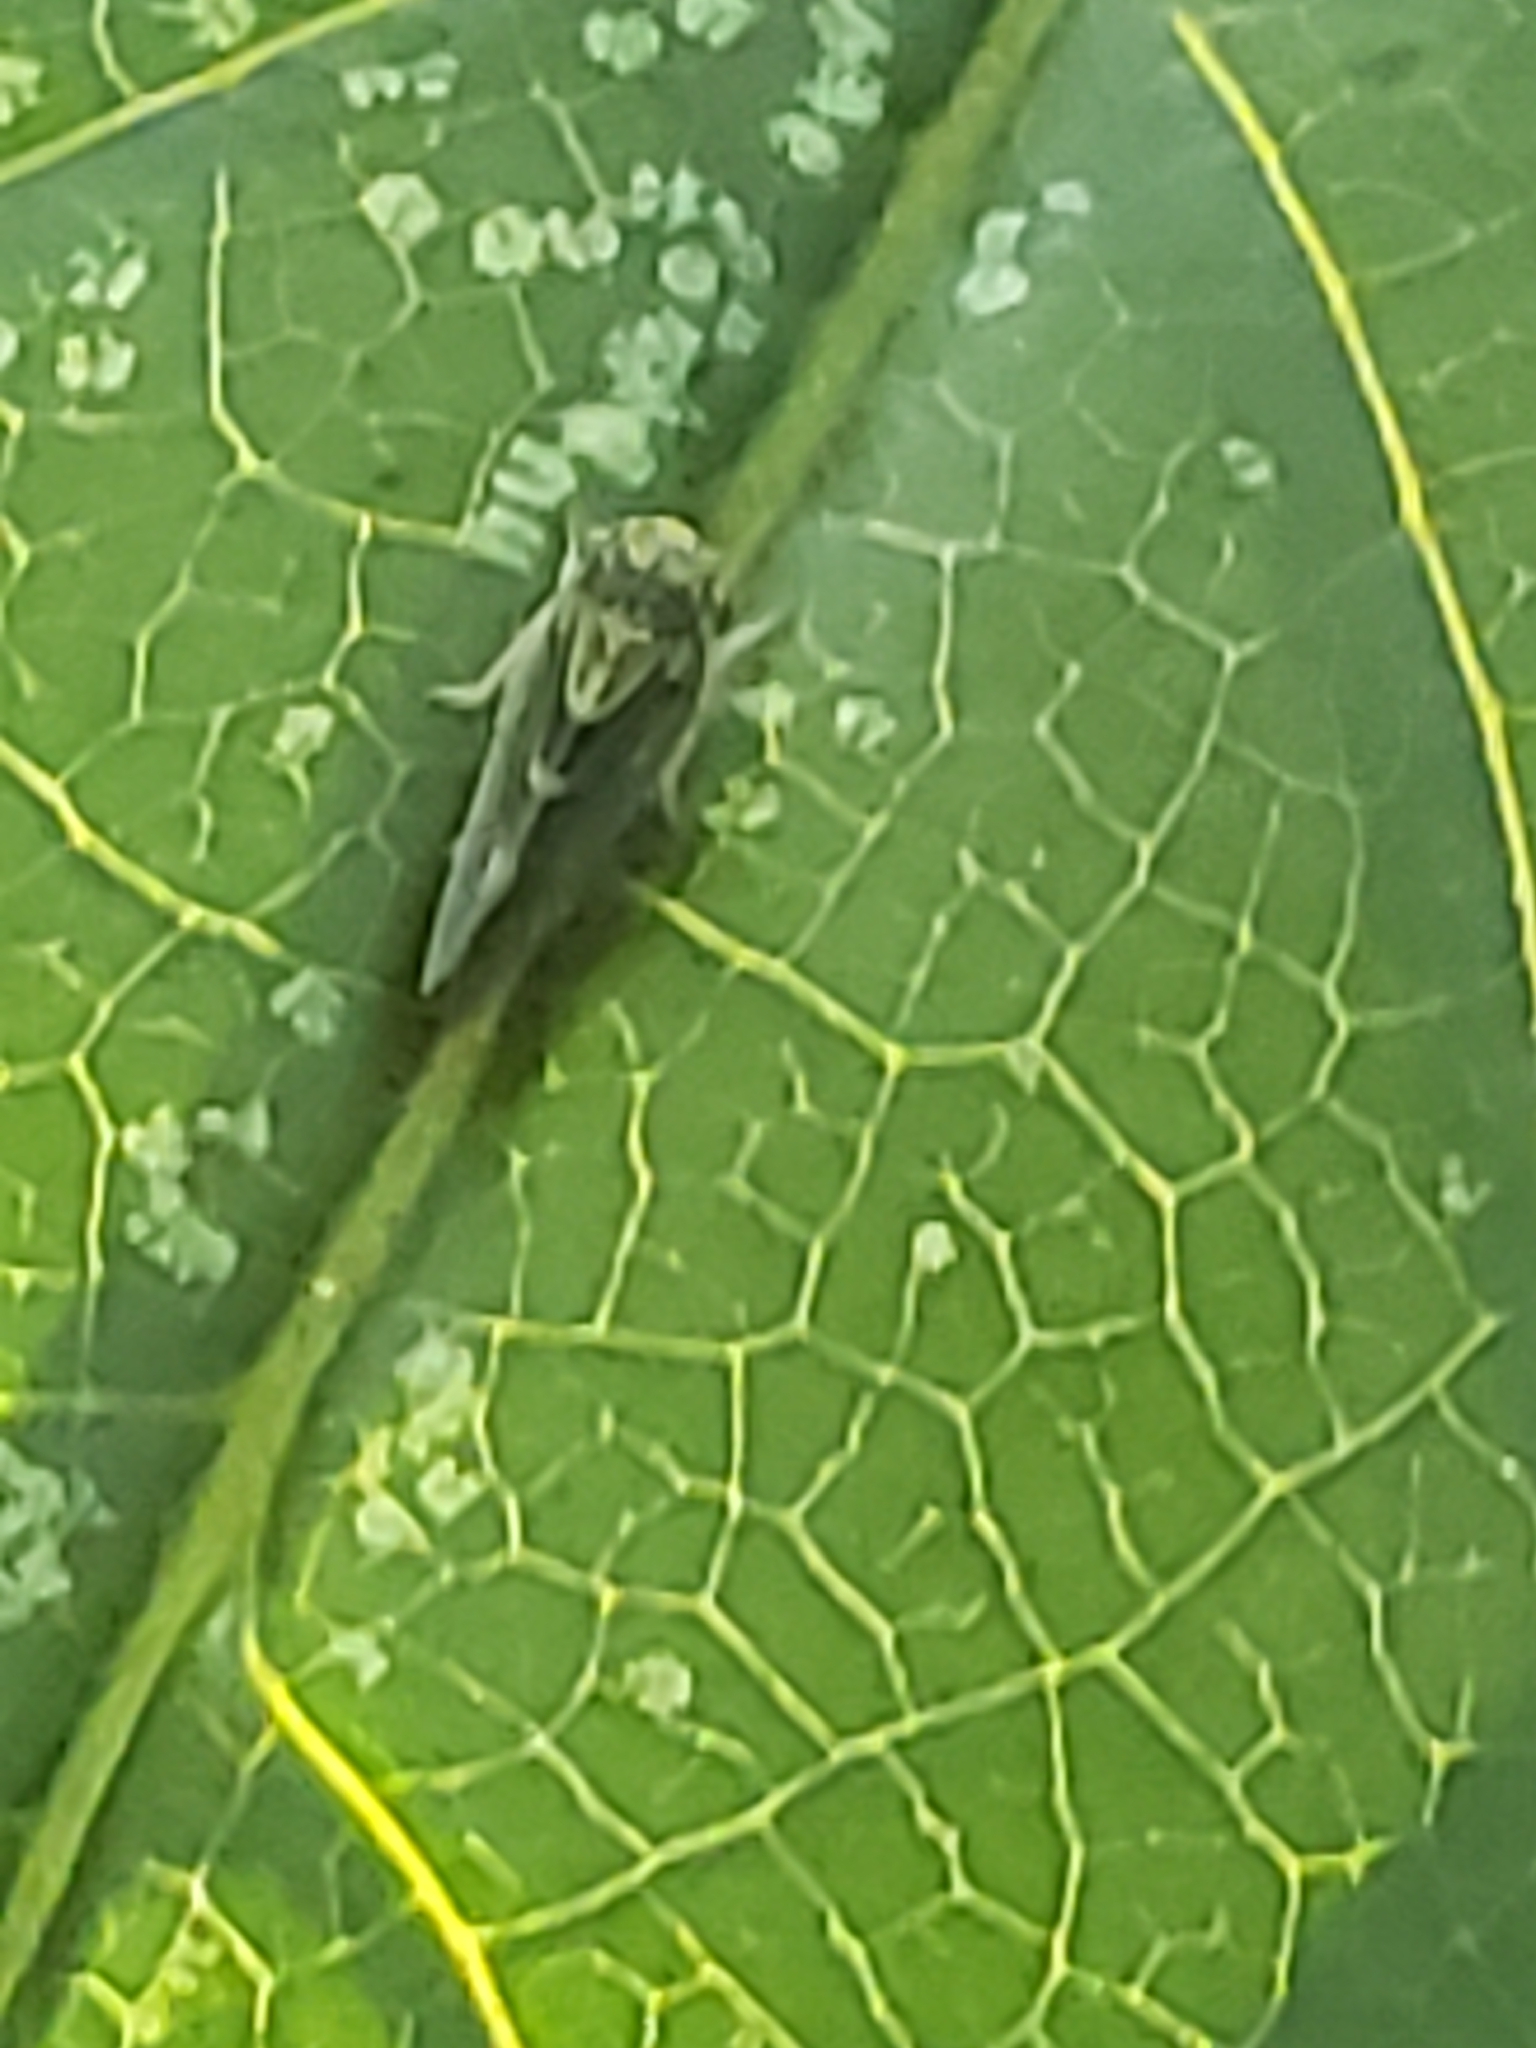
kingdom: Animalia
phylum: Arthropoda
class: Insecta
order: Hemiptera
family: Cicadellidae
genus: Agalliopsis
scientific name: Agalliopsis novella
